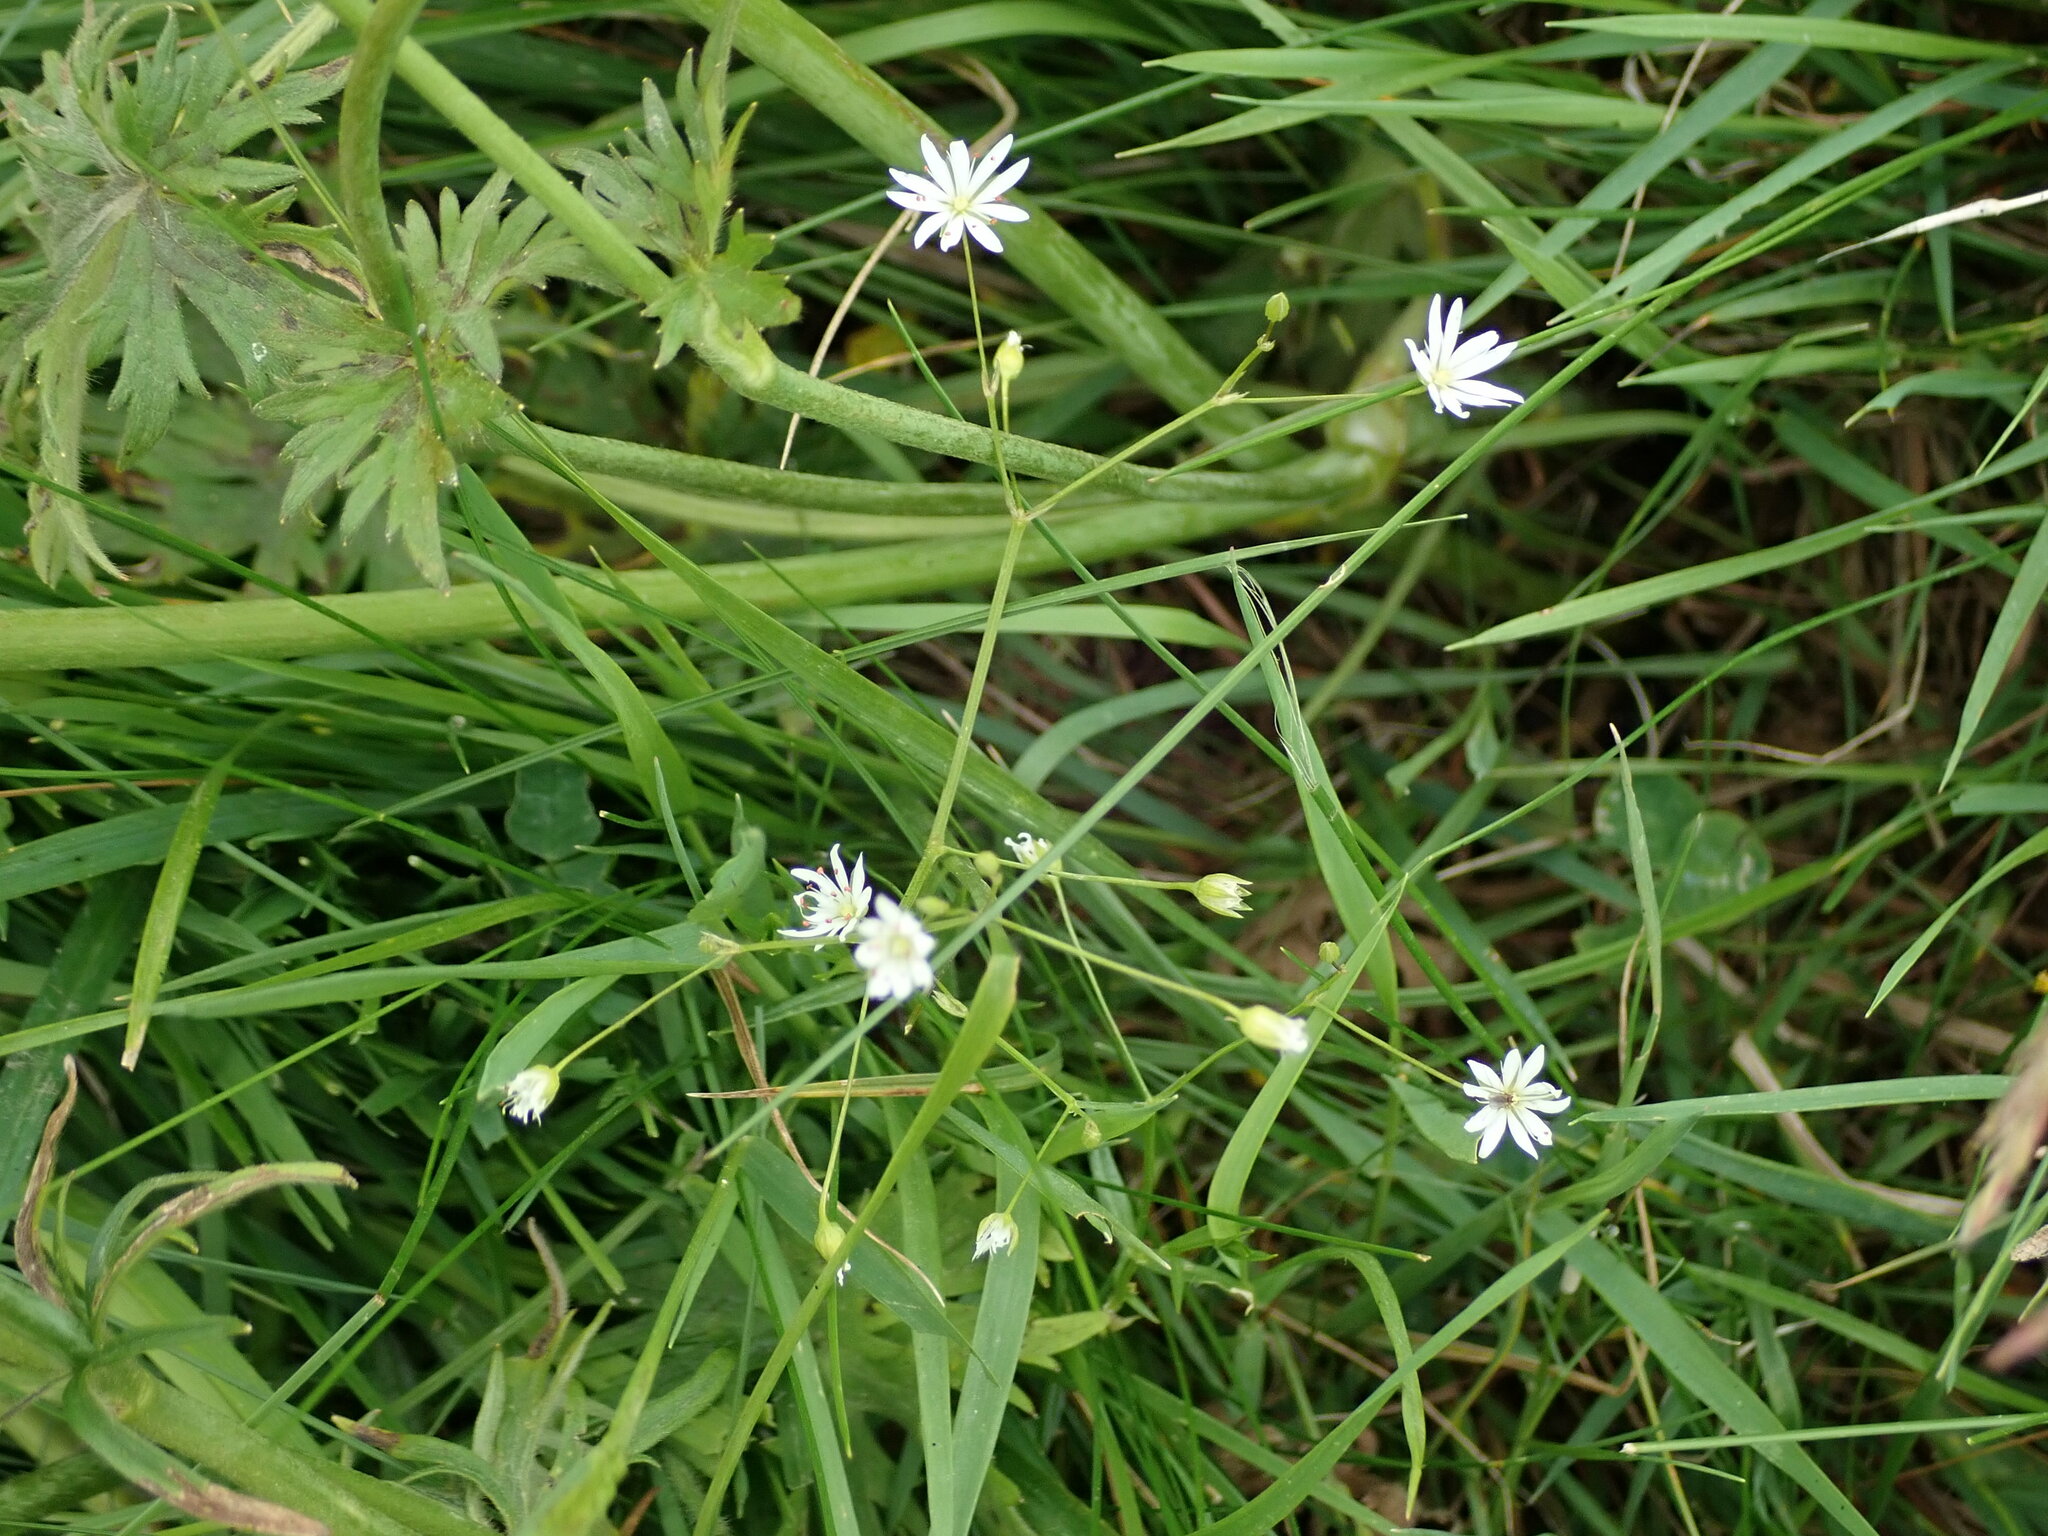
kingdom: Plantae
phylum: Tracheophyta
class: Magnoliopsida
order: Caryophyllales
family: Caryophyllaceae
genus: Stellaria
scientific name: Stellaria graminea
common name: Grass-like starwort
